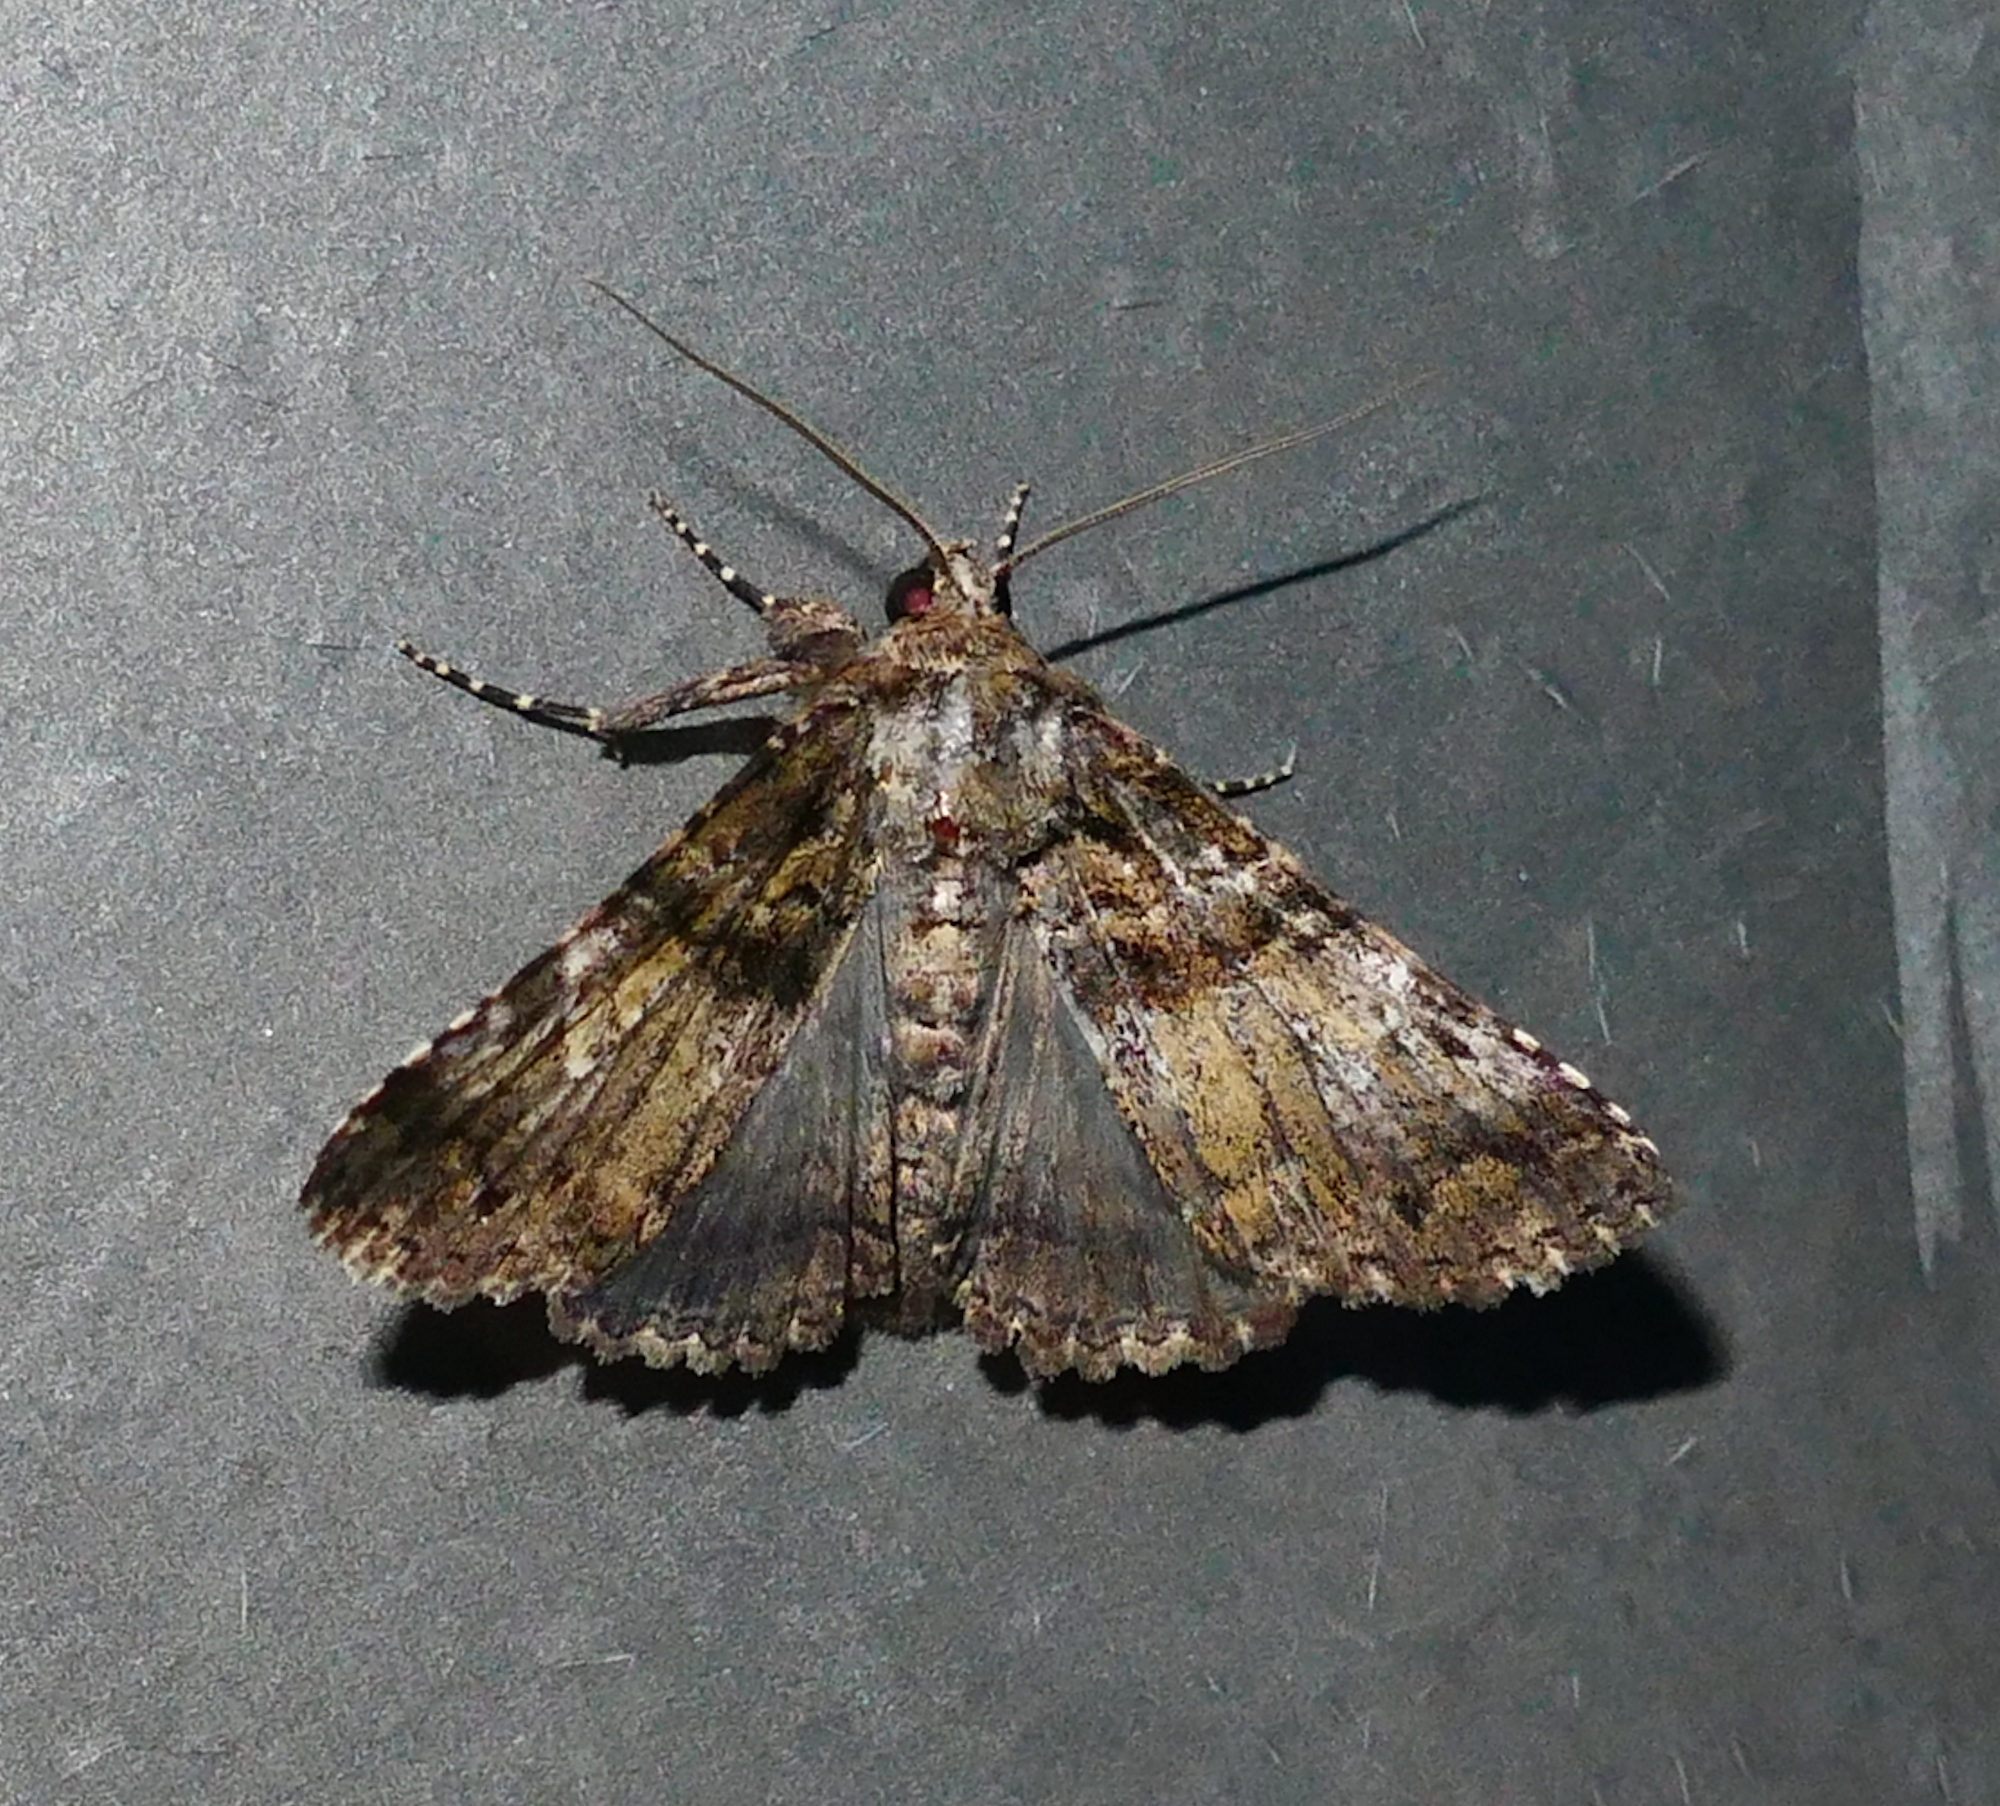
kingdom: Animalia
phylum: Arthropoda
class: Insecta
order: Lepidoptera
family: Erebidae
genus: Metria
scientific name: Metria amella
